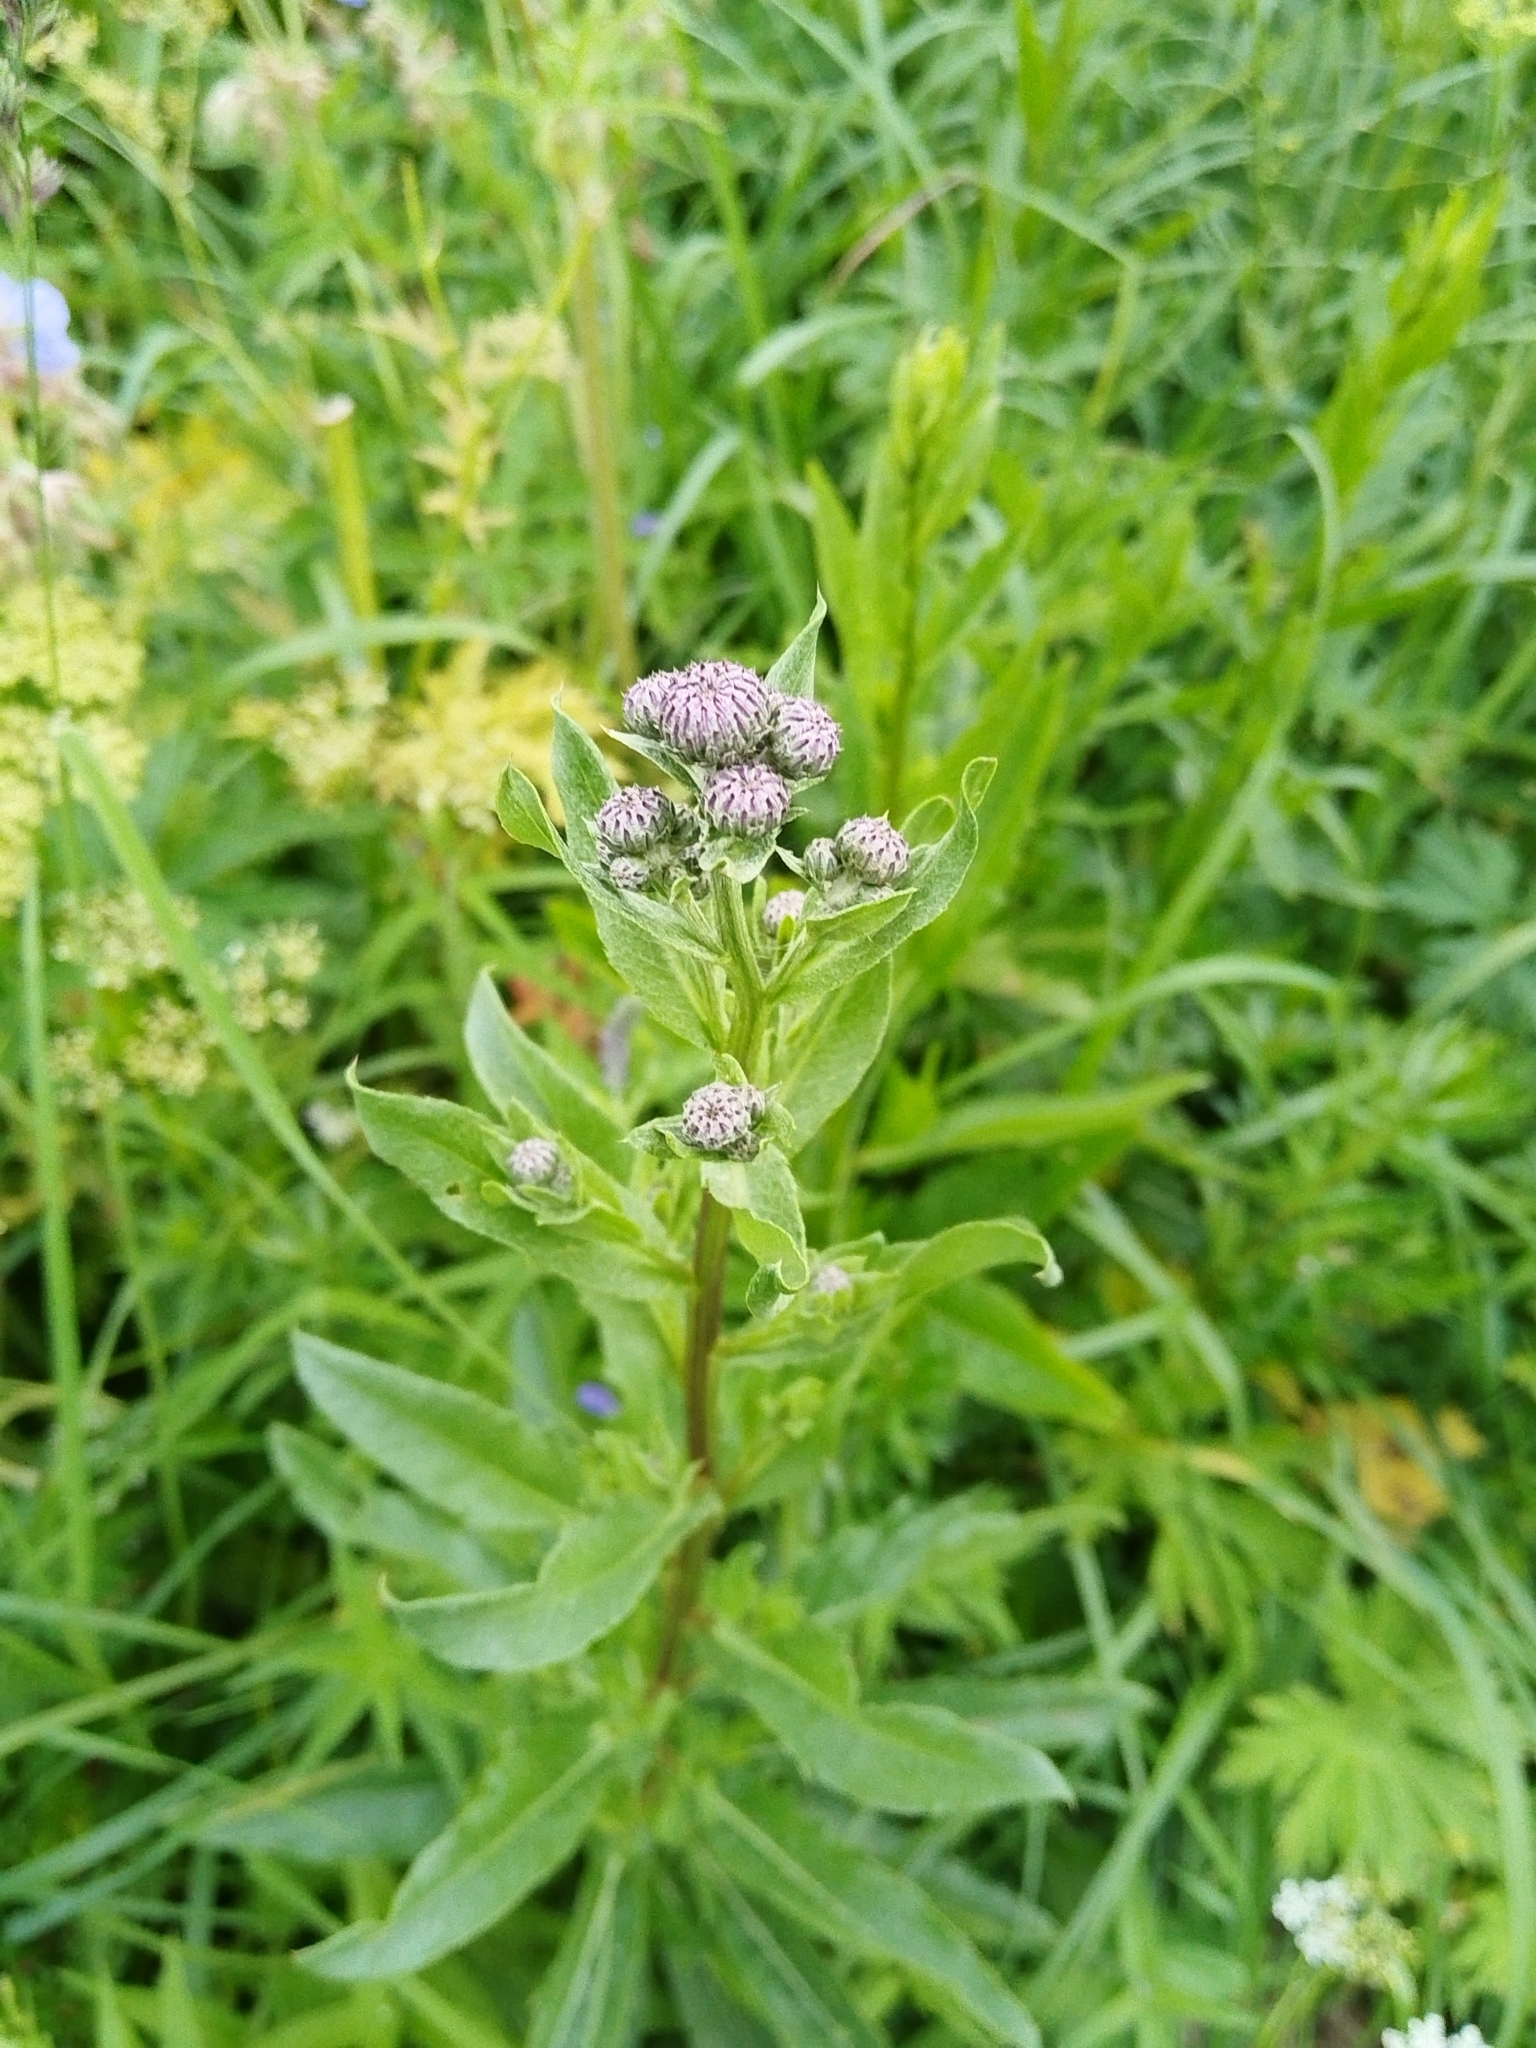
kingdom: Plantae
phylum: Tracheophyta
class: Magnoliopsida
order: Asterales
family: Asteraceae
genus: Cirsium
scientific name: Cirsium arvense
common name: Creeping thistle
